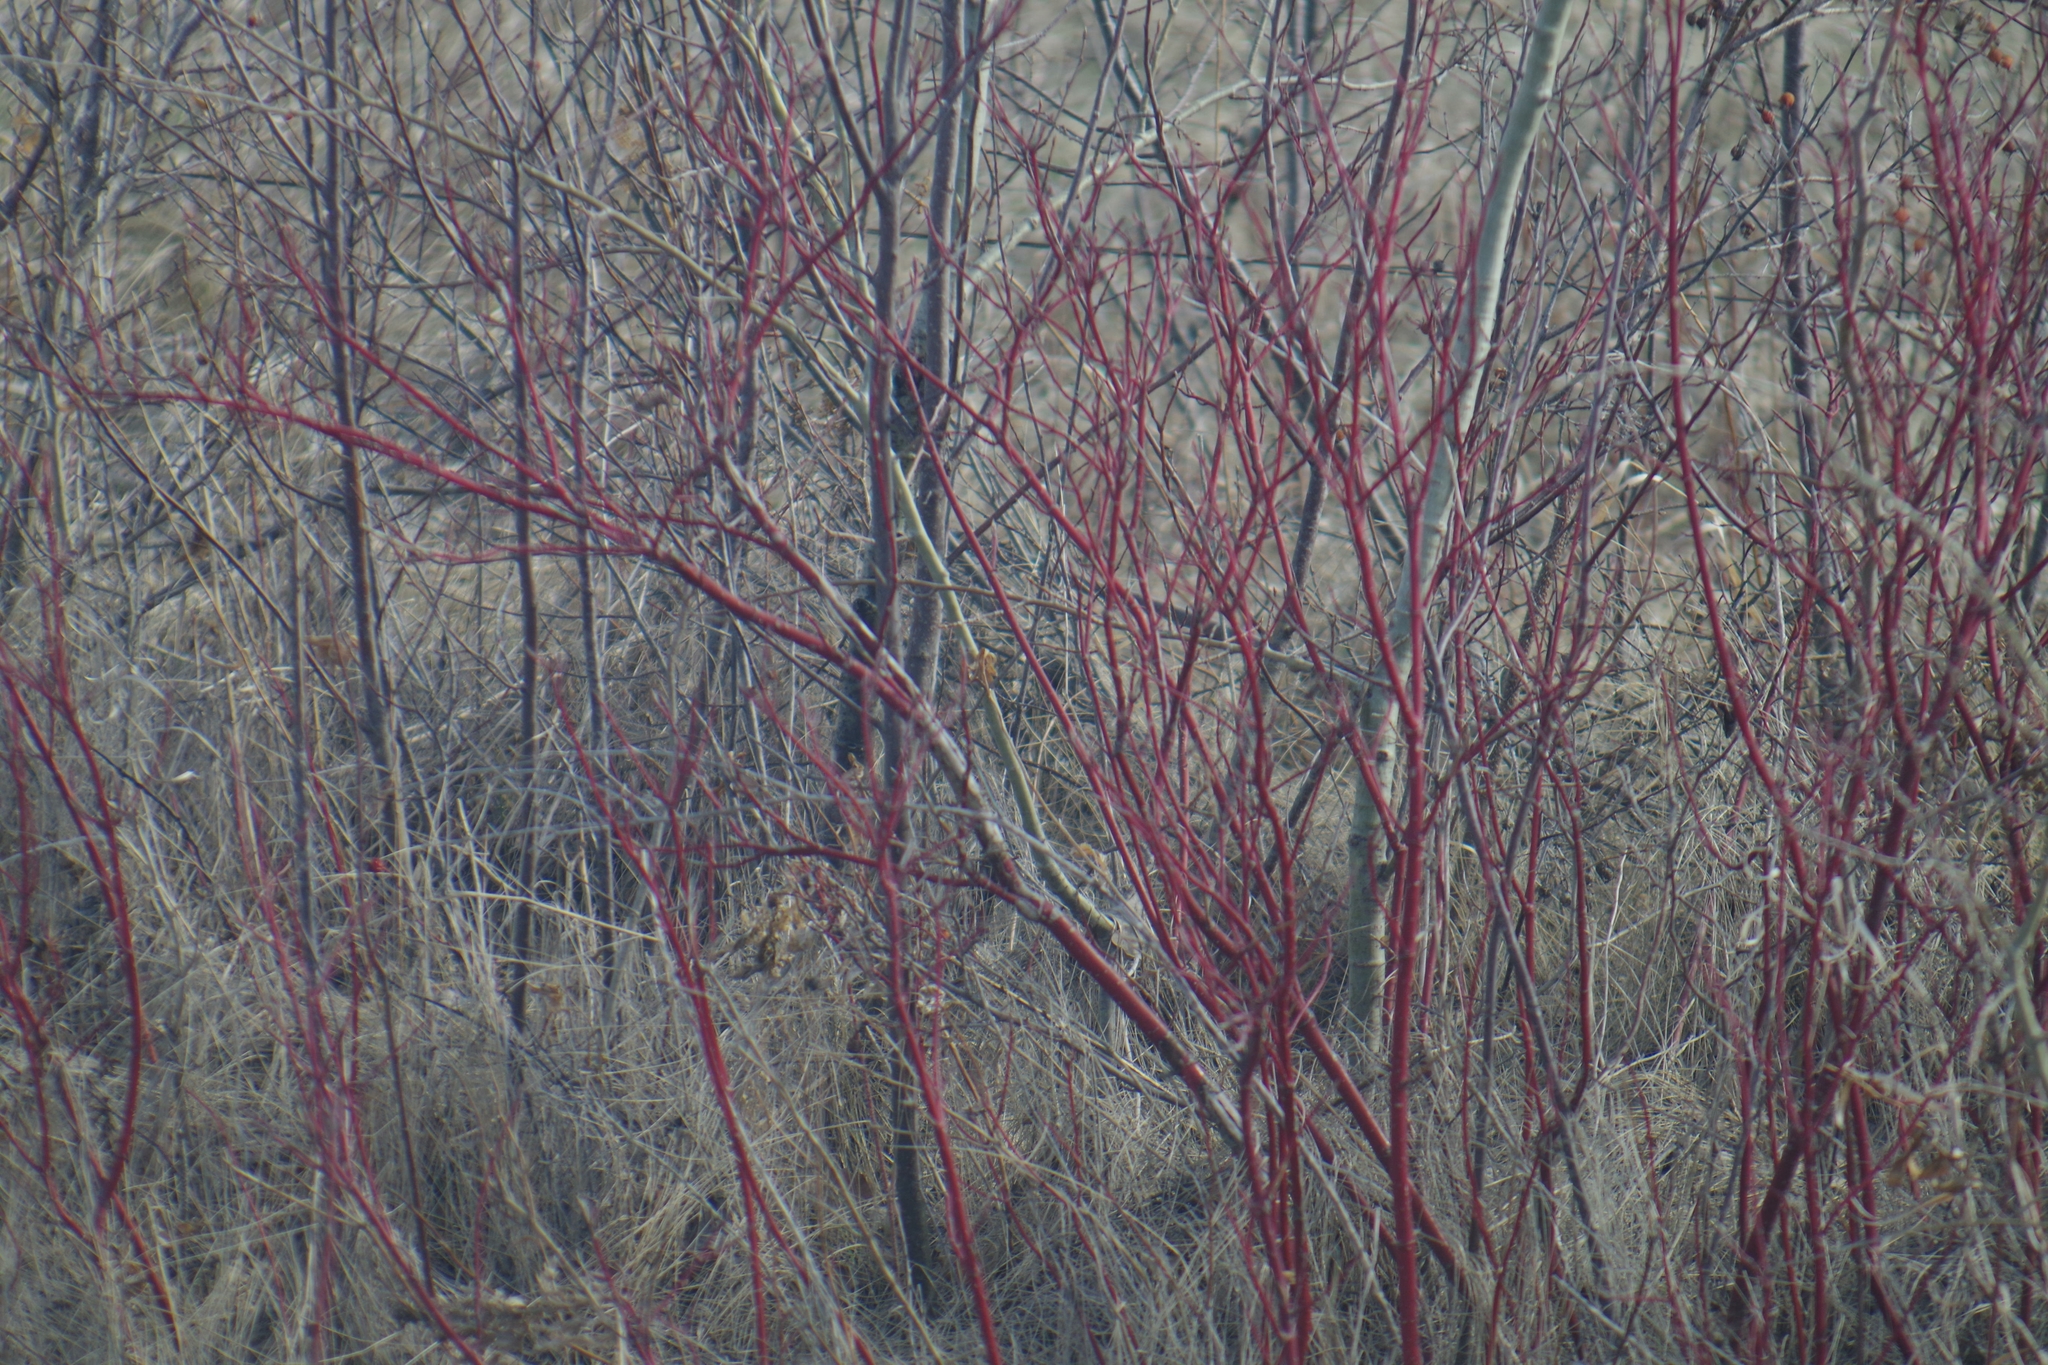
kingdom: Plantae
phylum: Tracheophyta
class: Magnoliopsida
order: Cornales
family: Cornaceae
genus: Cornus
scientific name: Cornus sericea
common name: Red-osier dogwood
